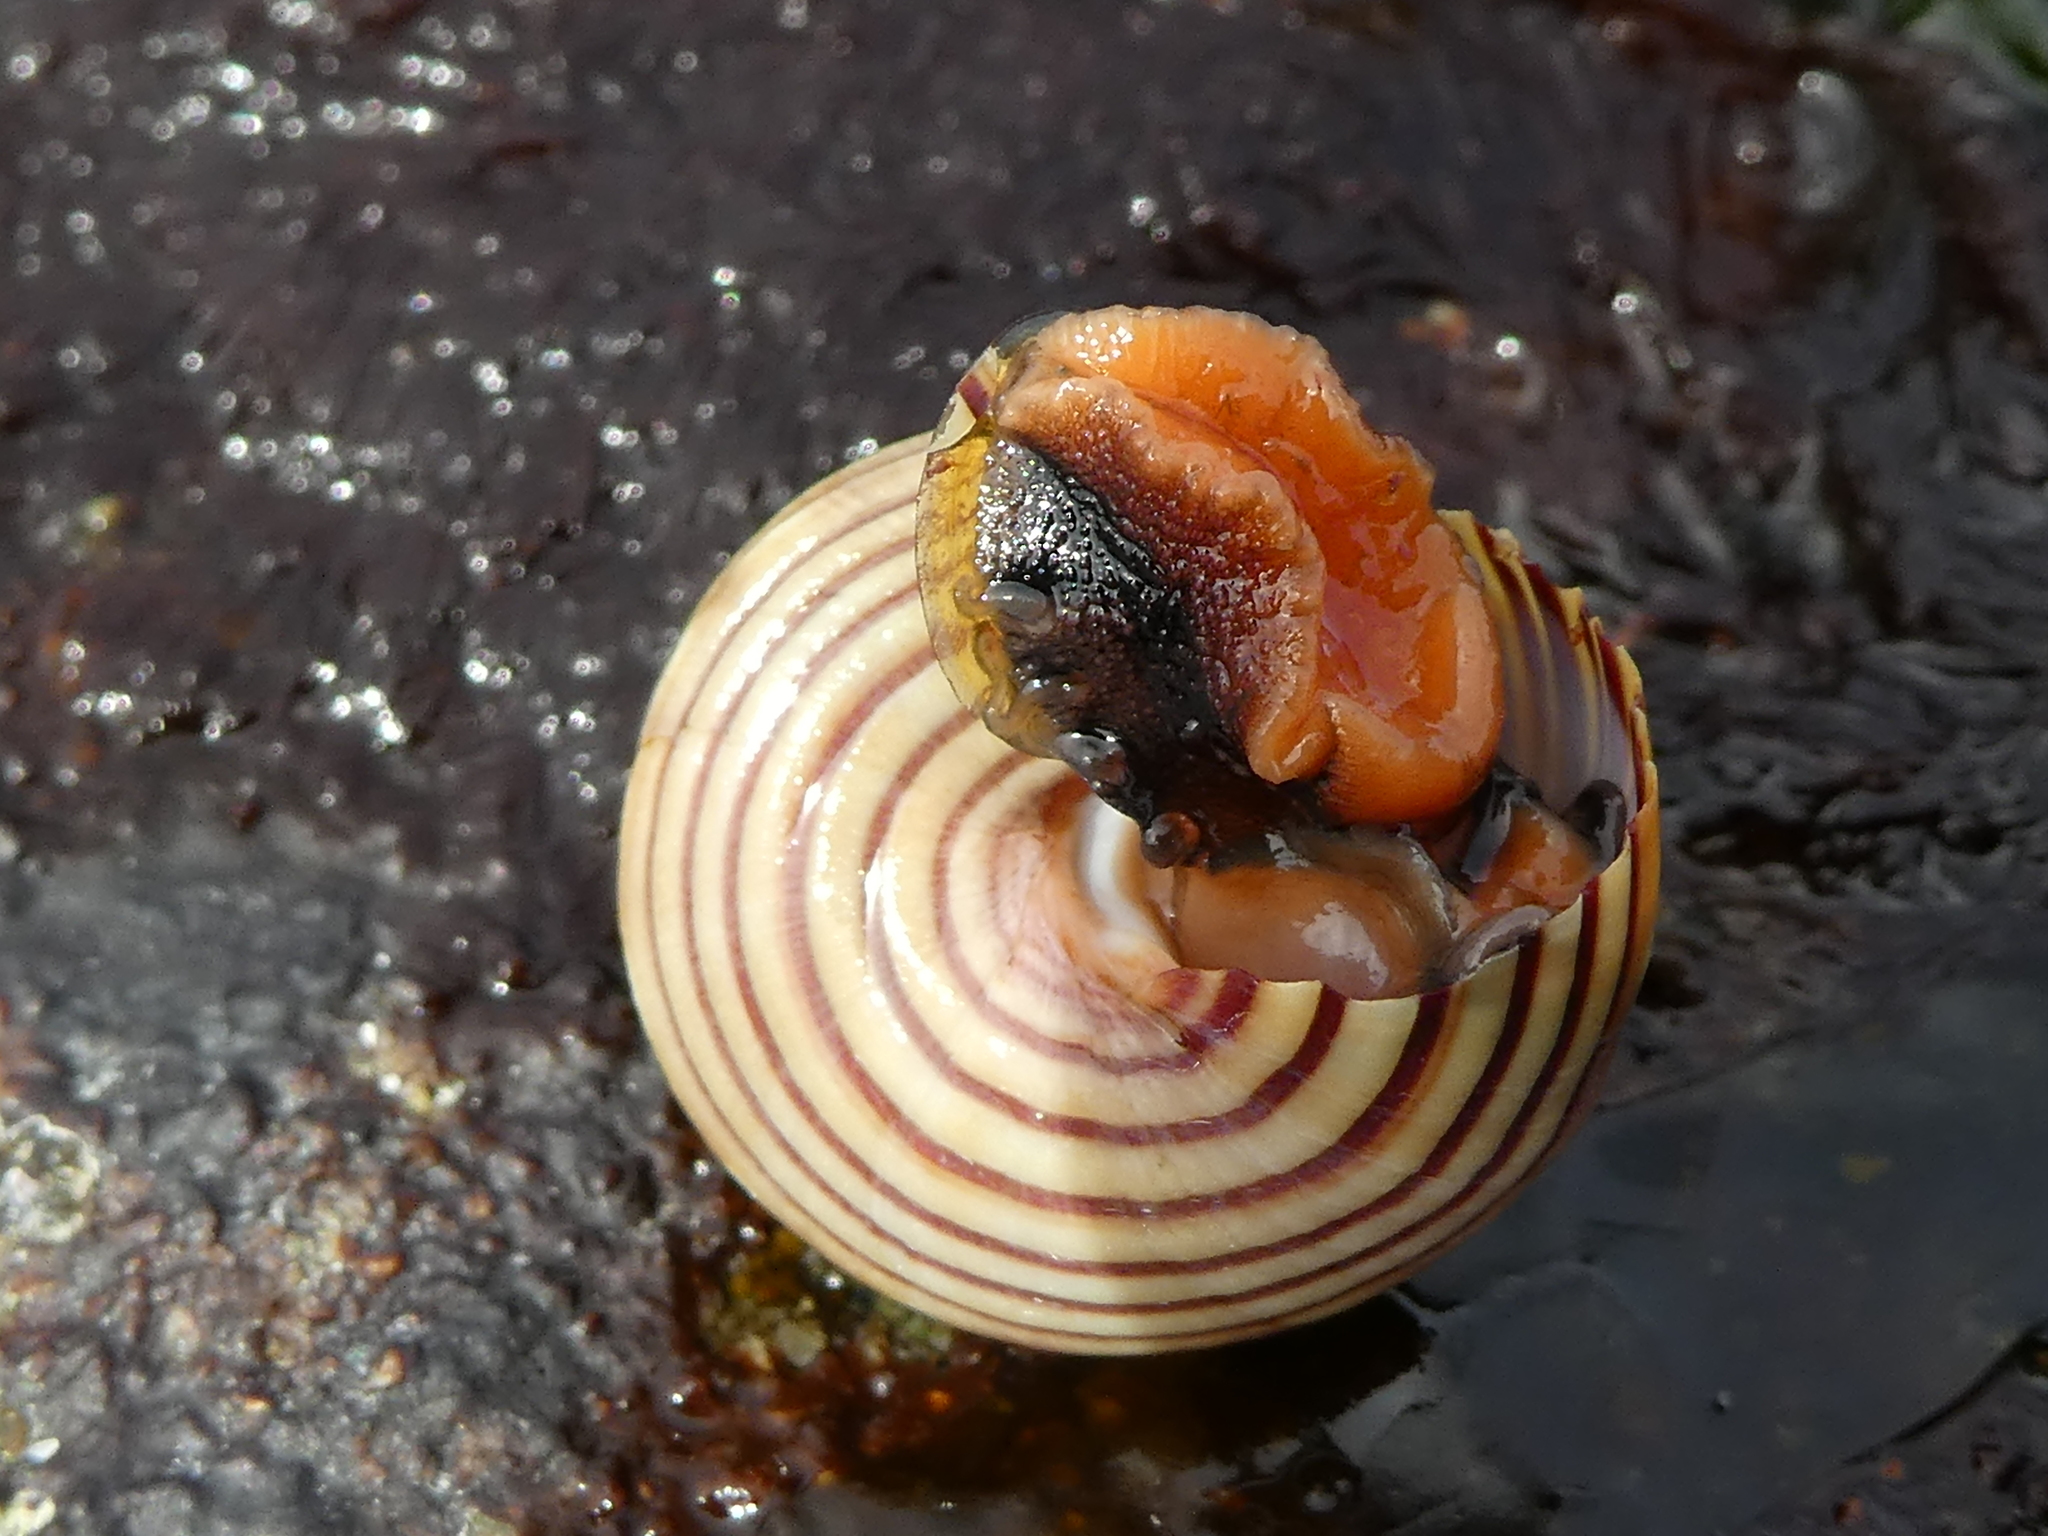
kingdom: Animalia
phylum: Mollusca
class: Gastropoda
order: Trochida
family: Calliostomatidae
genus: Calliostoma
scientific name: Calliostoma ligatum
